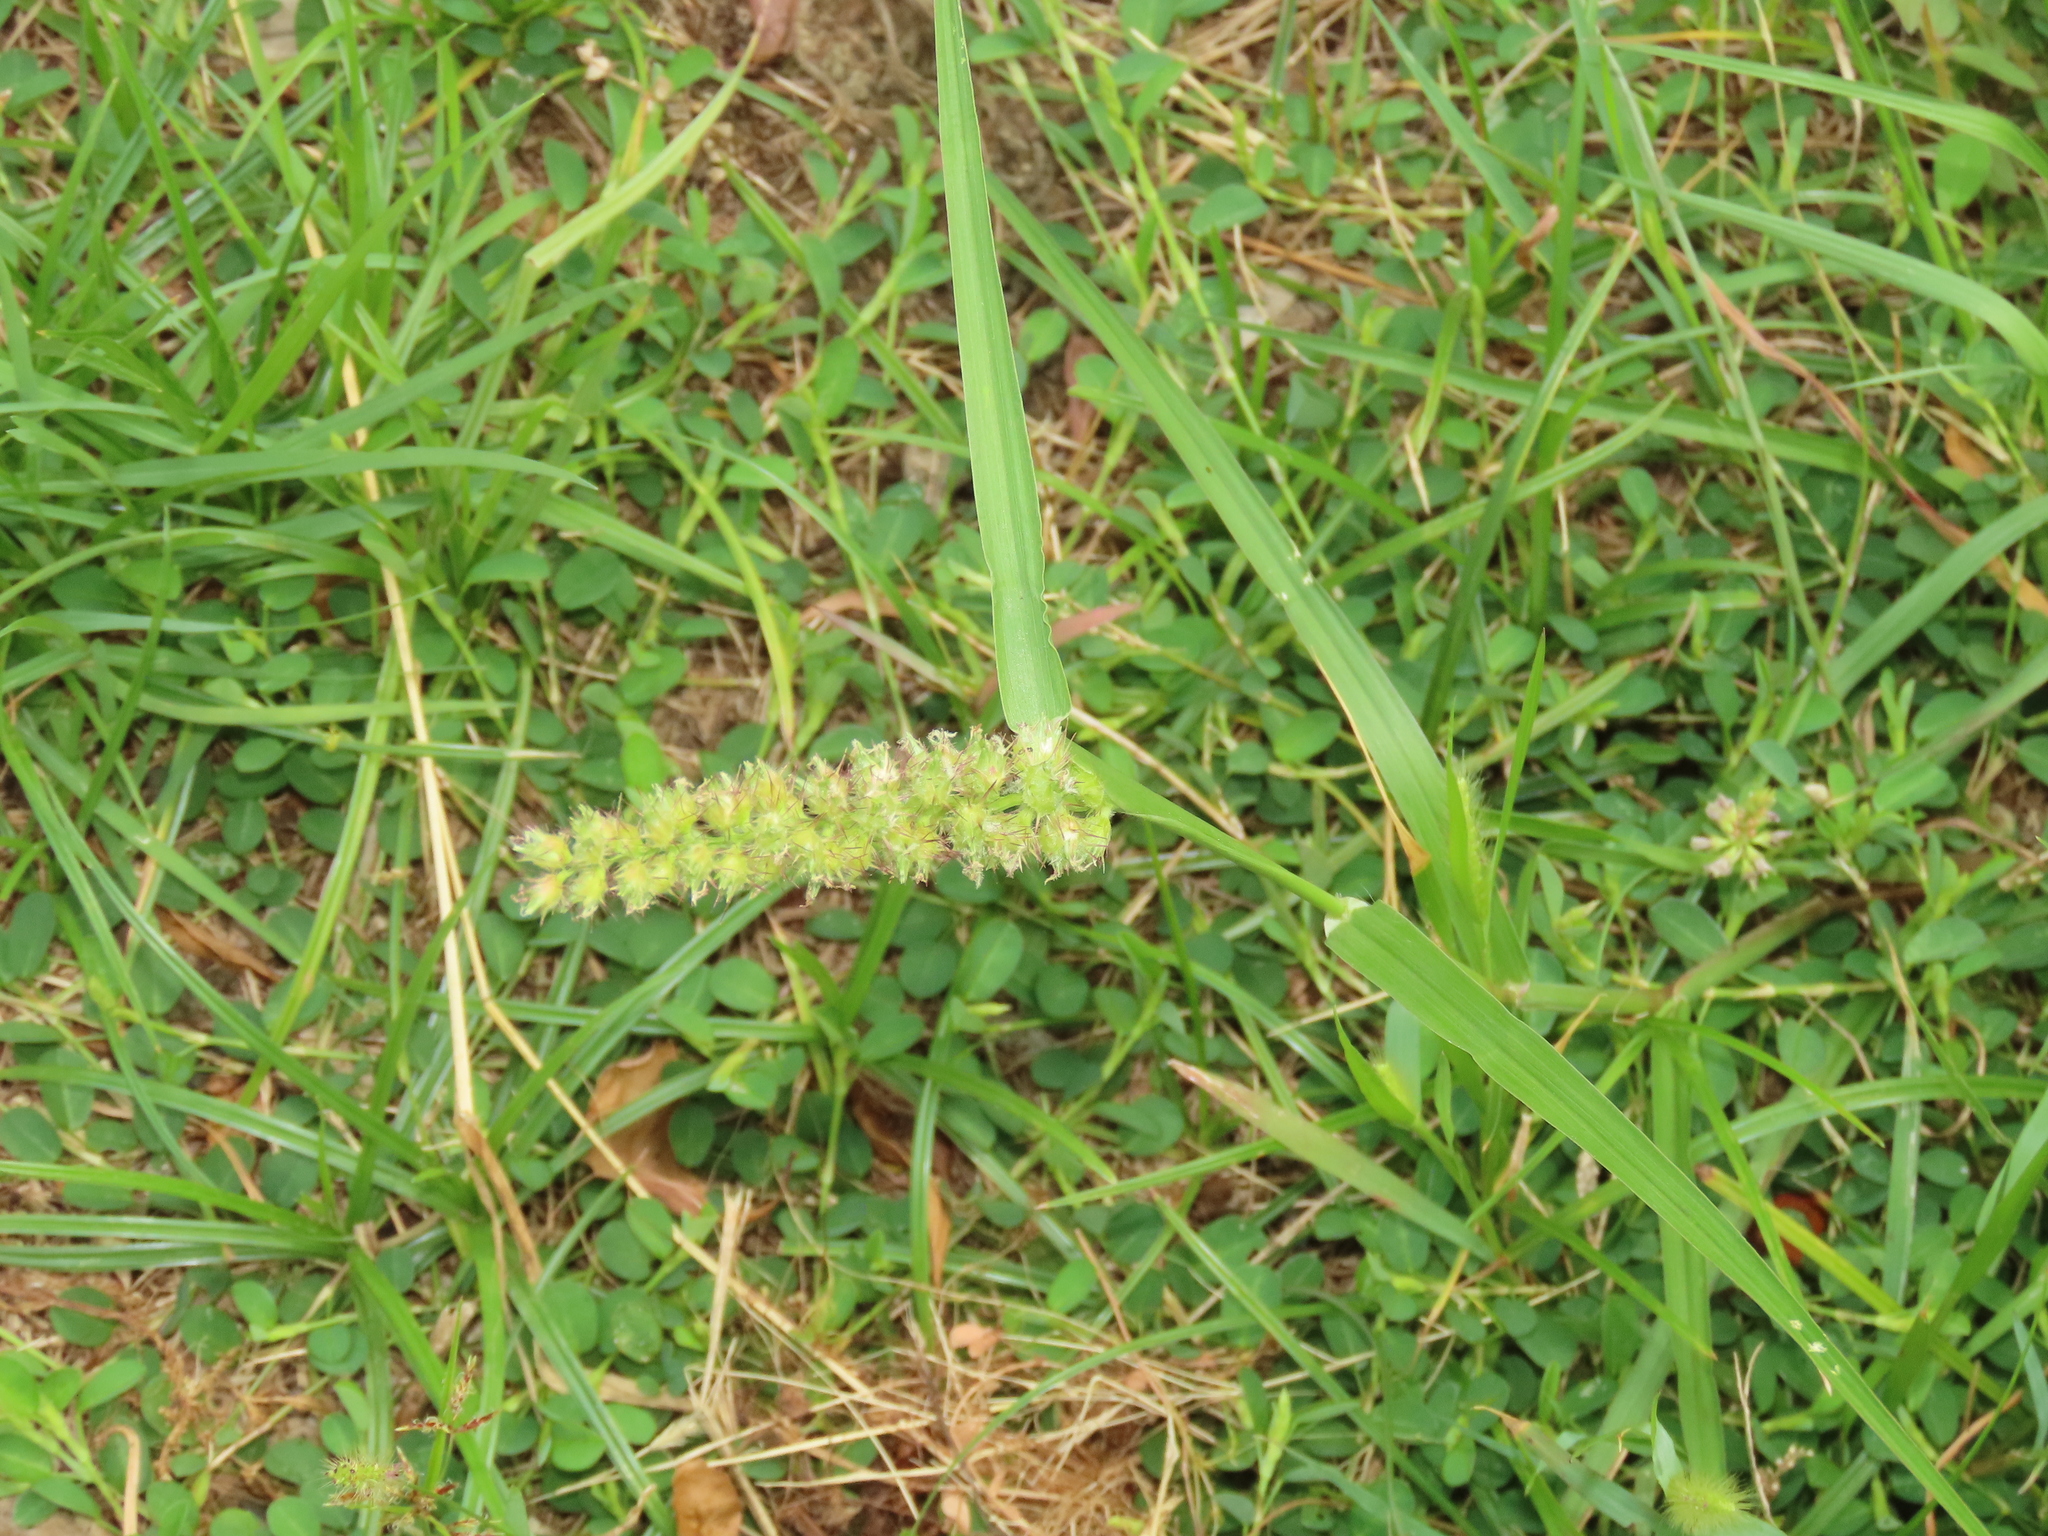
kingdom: Plantae
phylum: Tracheophyta
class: Liliopsida
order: Poales
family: Poaceae
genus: Cenchrus
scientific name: Cenchrus echinatus
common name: Southern sandbur
